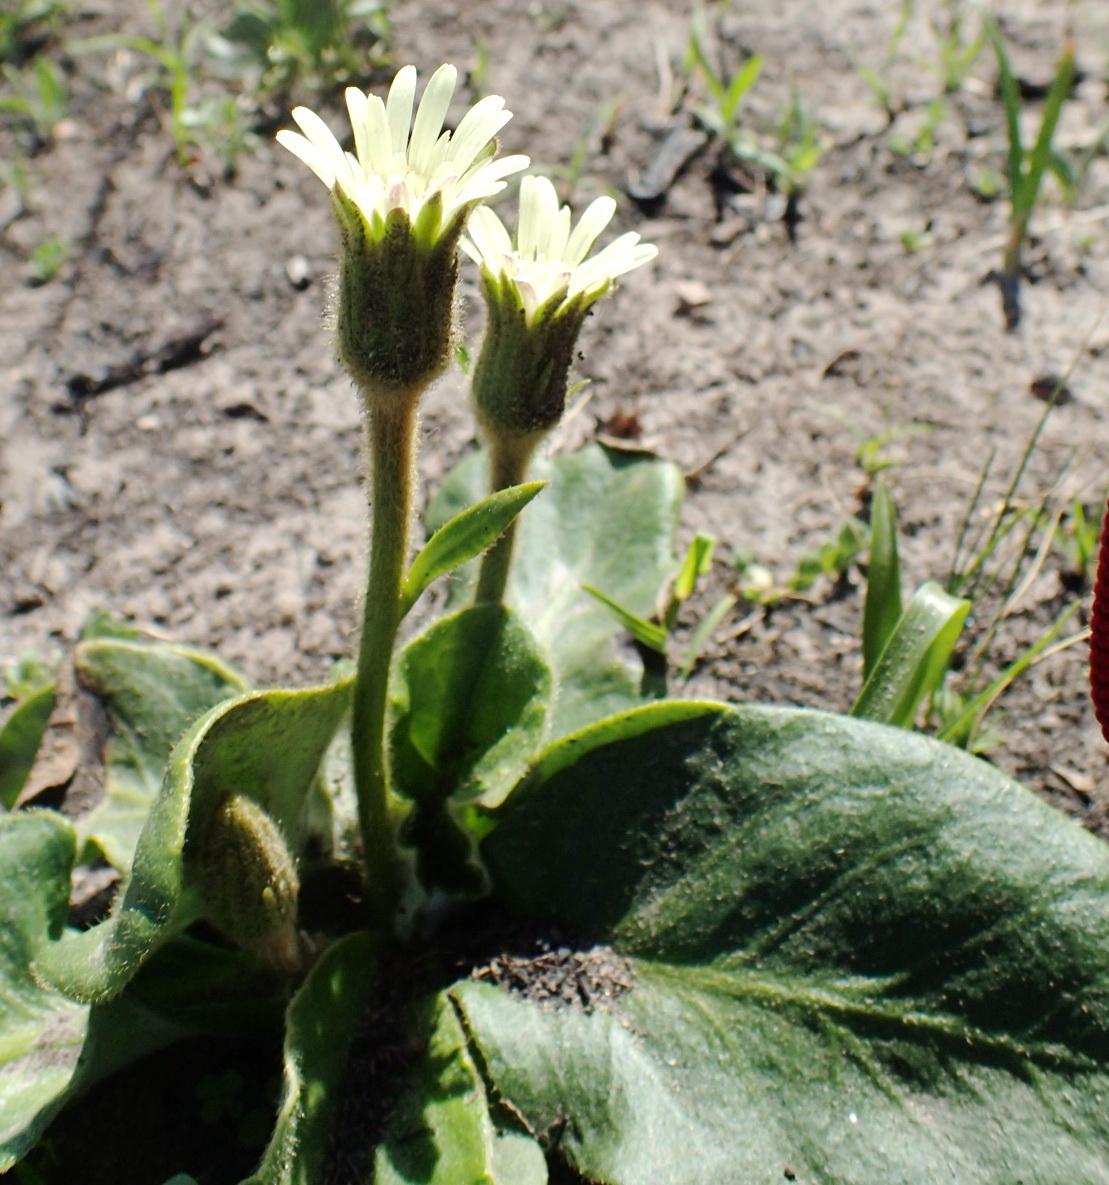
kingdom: Plantae
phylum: Tracheophyta
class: Magnoliopsida
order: Asterales
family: Asteraceae
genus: Piloselloides
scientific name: Piloselloides hirsuta
